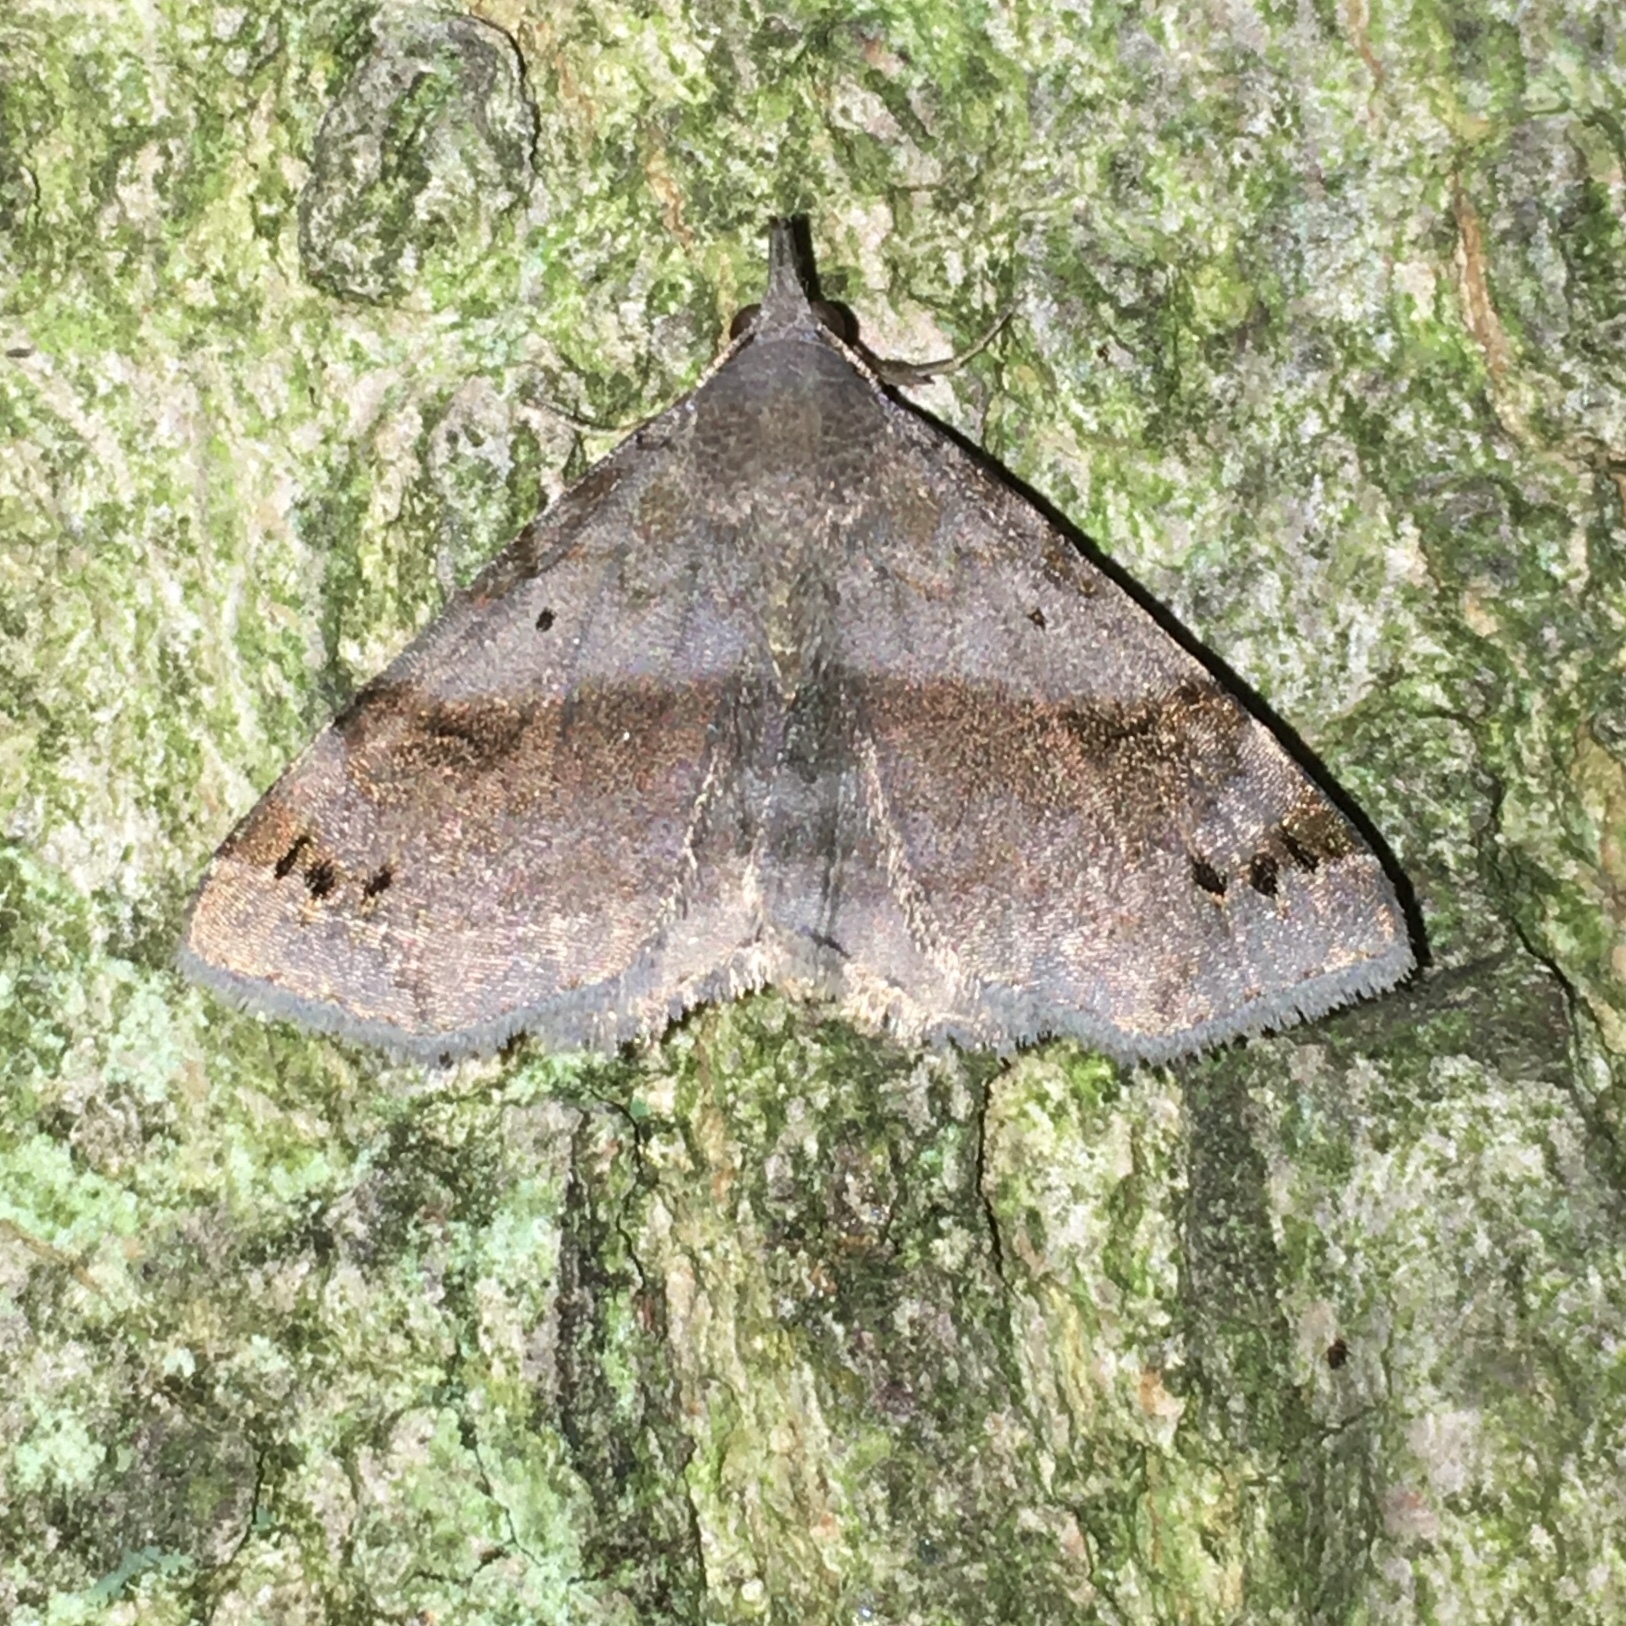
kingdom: Animalia
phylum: Arthropoda
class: Insecta
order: Lepidoptera
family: Erebidae
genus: Spargaloma
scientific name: Spargaloma sexpunctata
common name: Six-spotted gray
